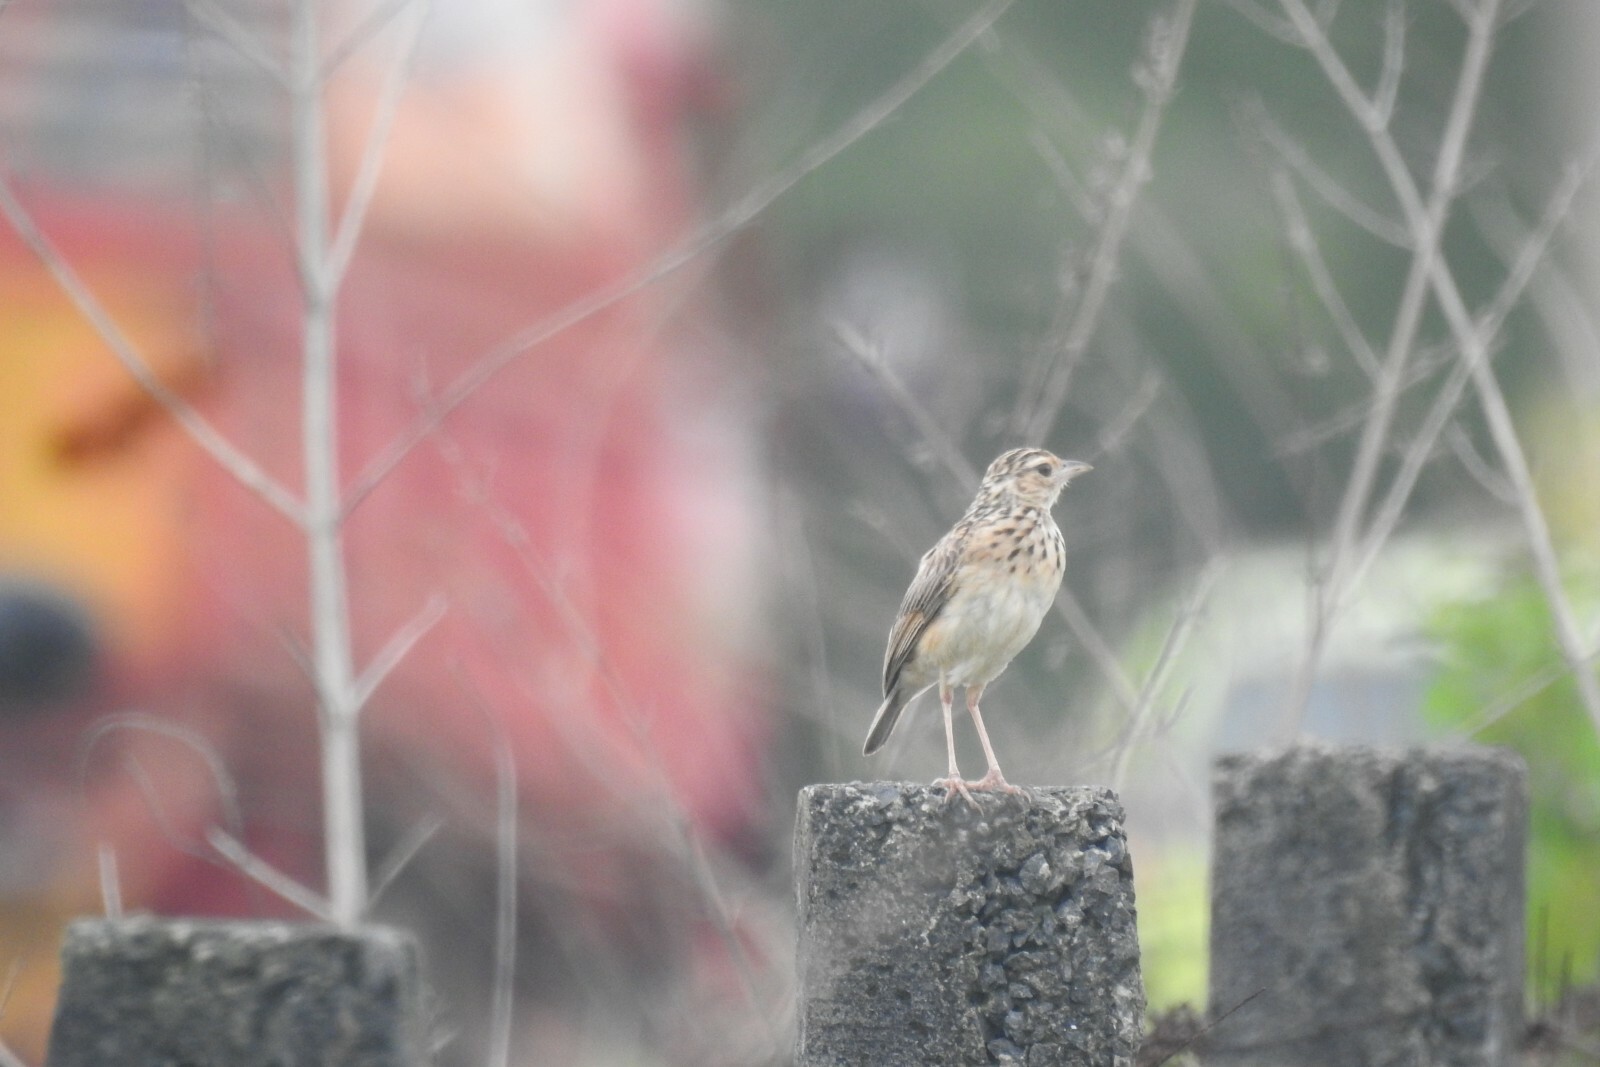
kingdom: Animalia
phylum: Chordata
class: Aves
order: Passeriformes
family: Alaudidae
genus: Mirafra
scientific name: Mirafra affinis
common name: Jerdon's bushlark
